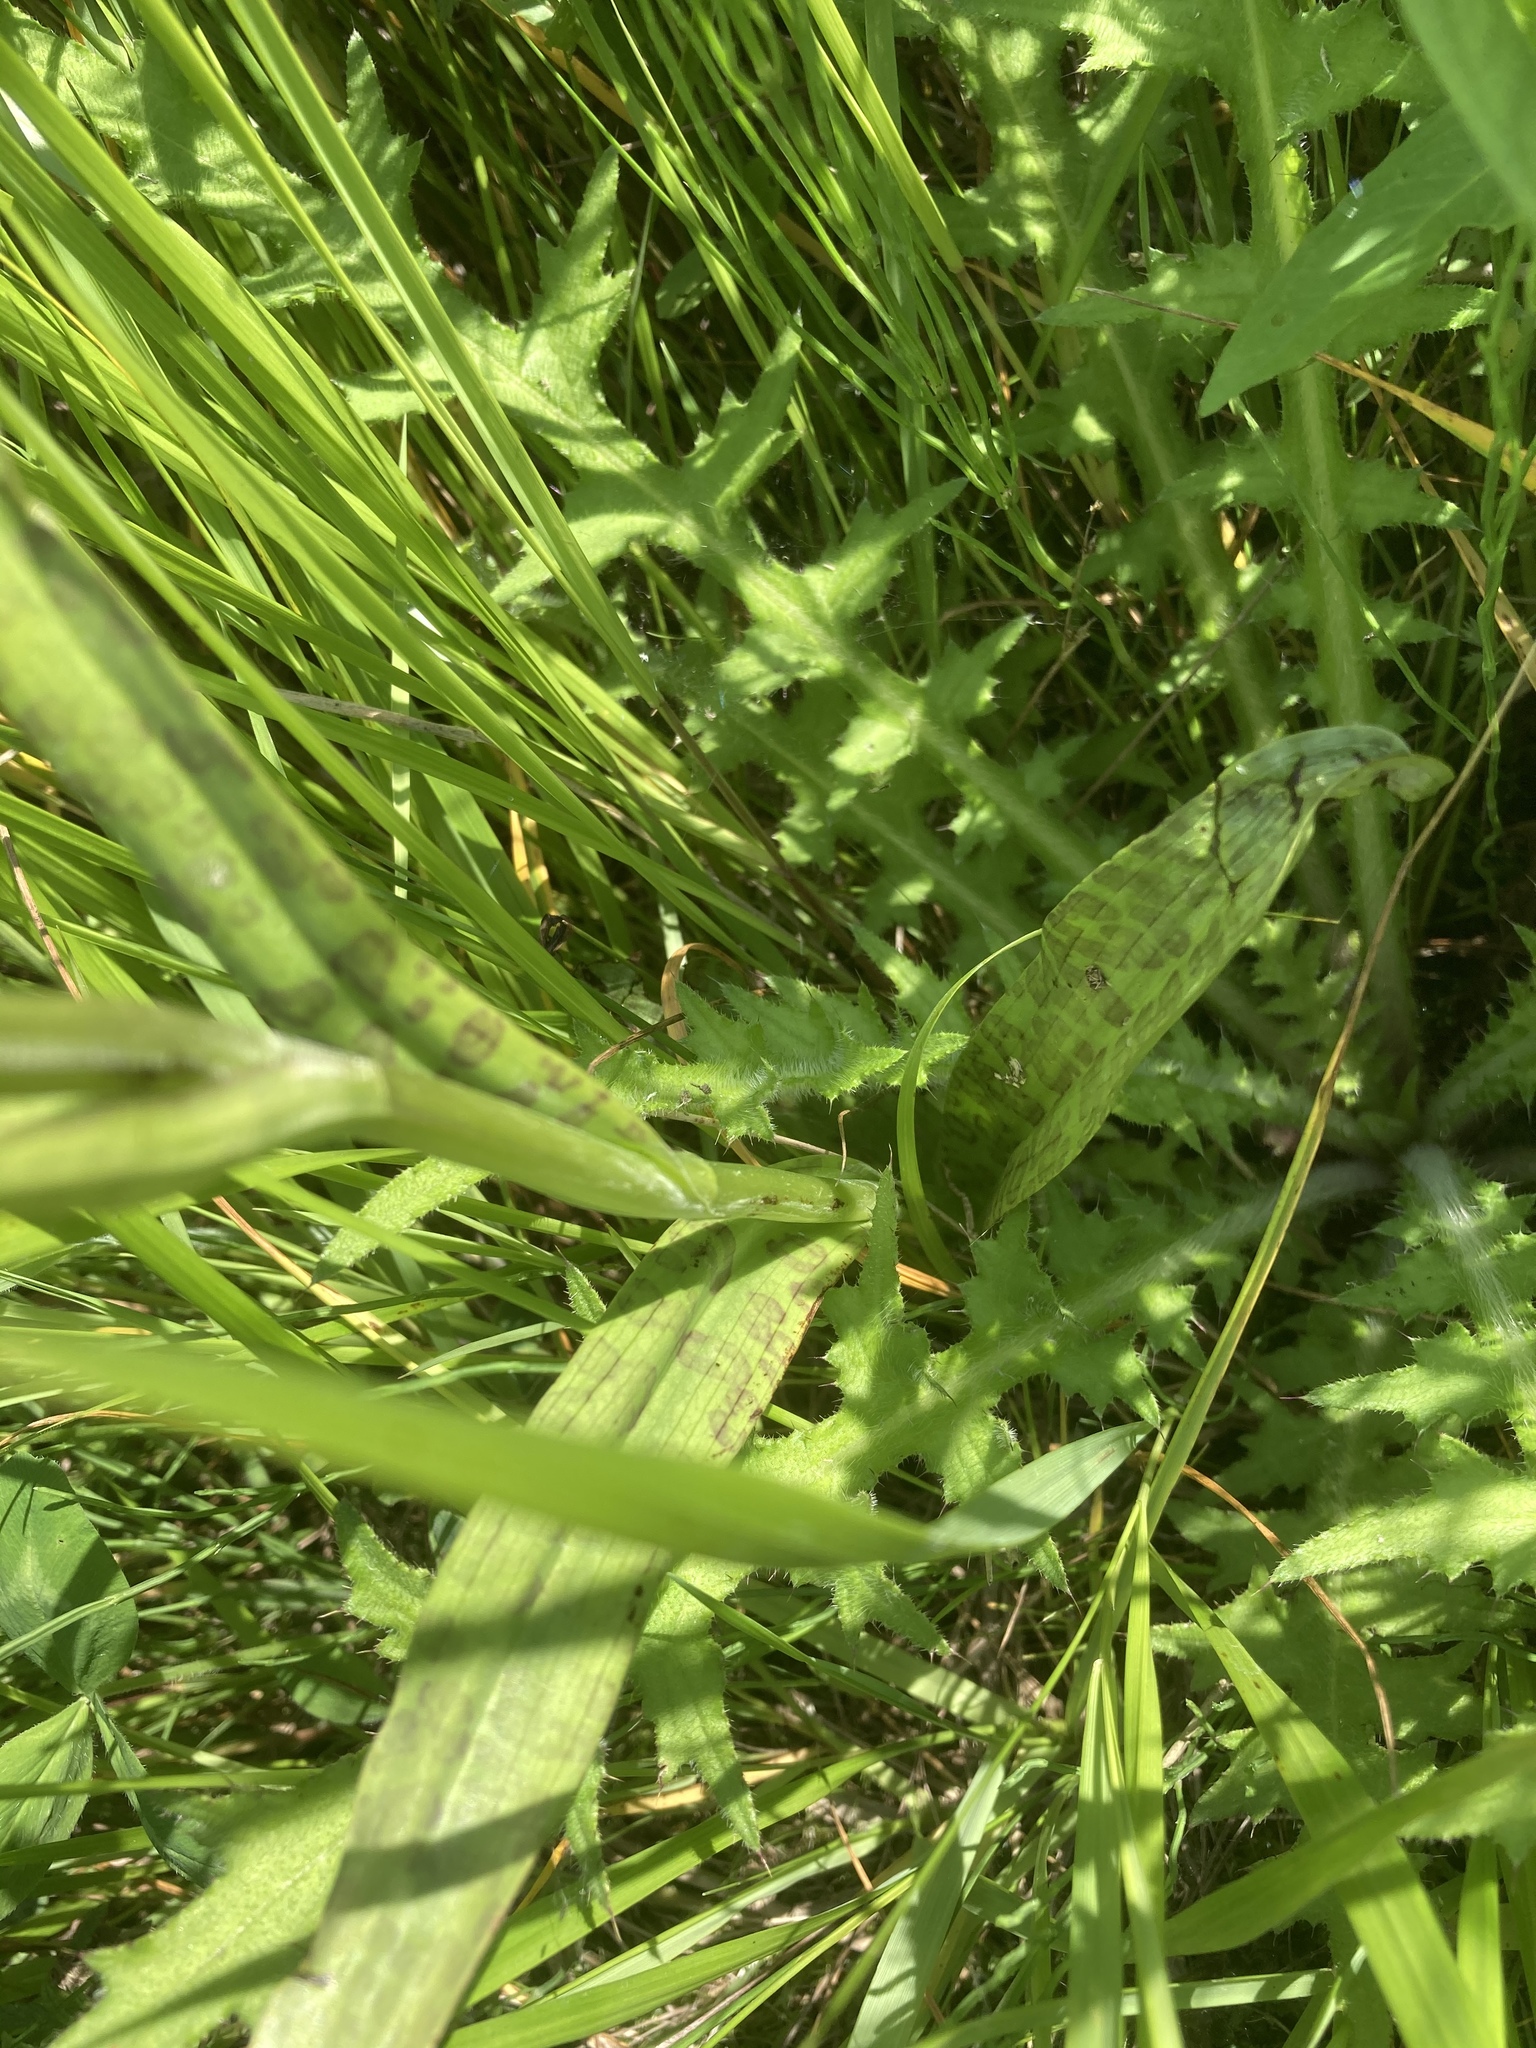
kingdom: Plantae
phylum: Tracheophyta
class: Liliopsida
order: Asparagales
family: Orchidaceae
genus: Dactylorhiza
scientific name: Dactylorhiza majalis
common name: Marsh orchid
